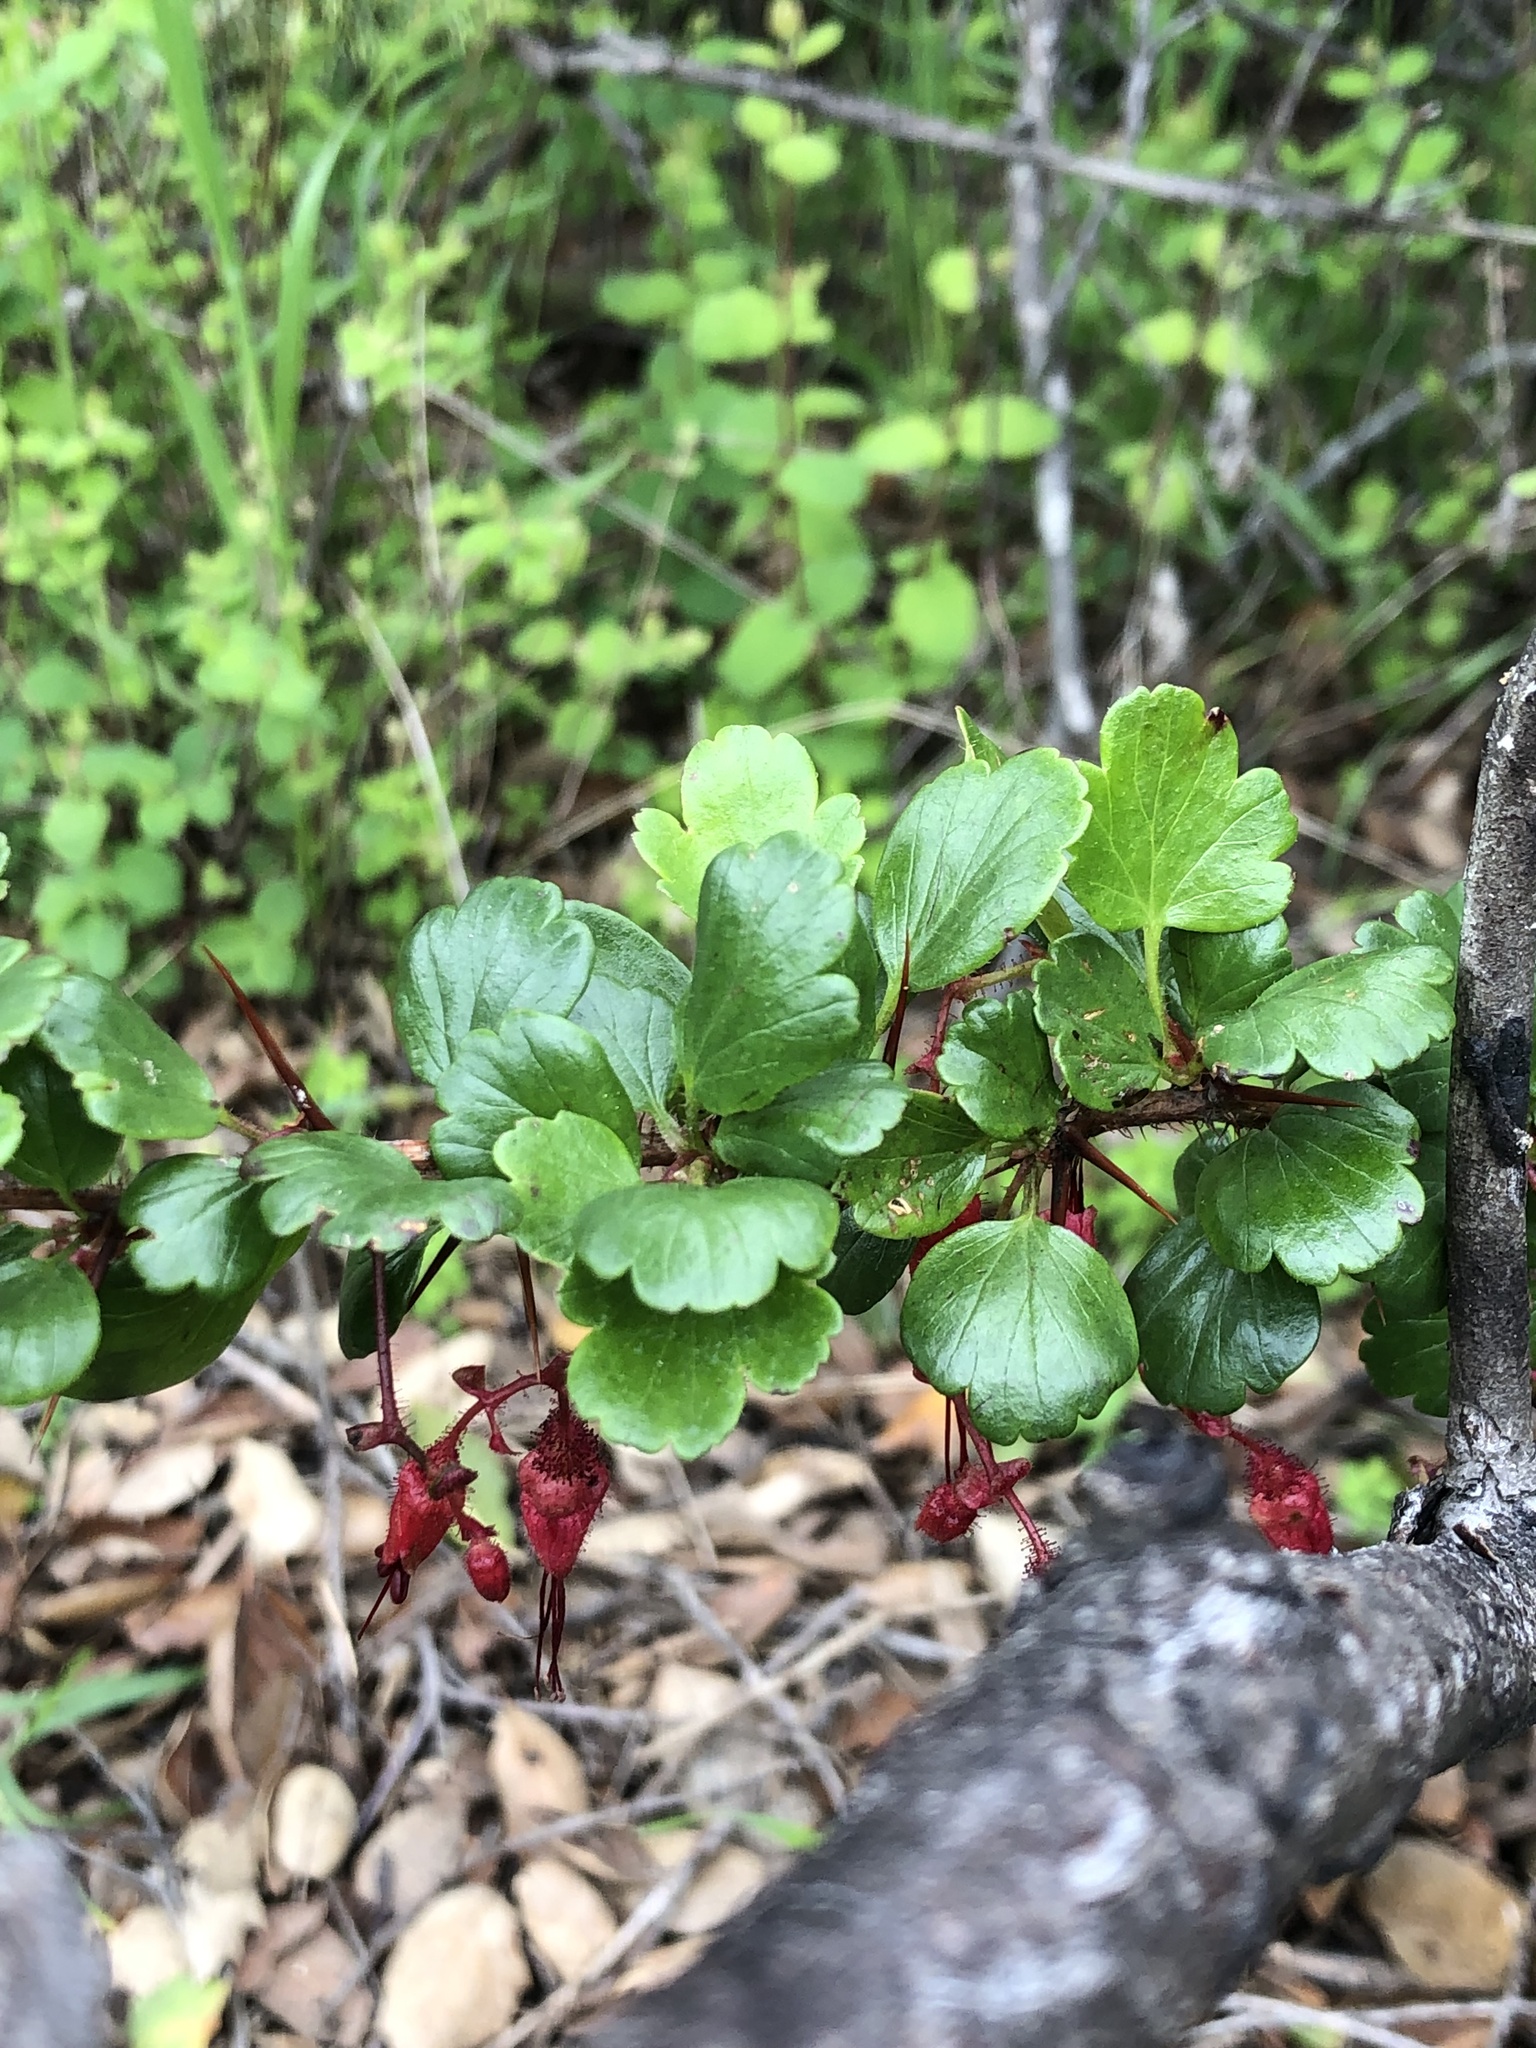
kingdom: Plantae
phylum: Tracheophyta
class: Magnoliopsida
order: Saxifragales
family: Grossulariaceae
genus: Ribes
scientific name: Ribes speciosum
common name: Fuchsia-flower gooseberry
